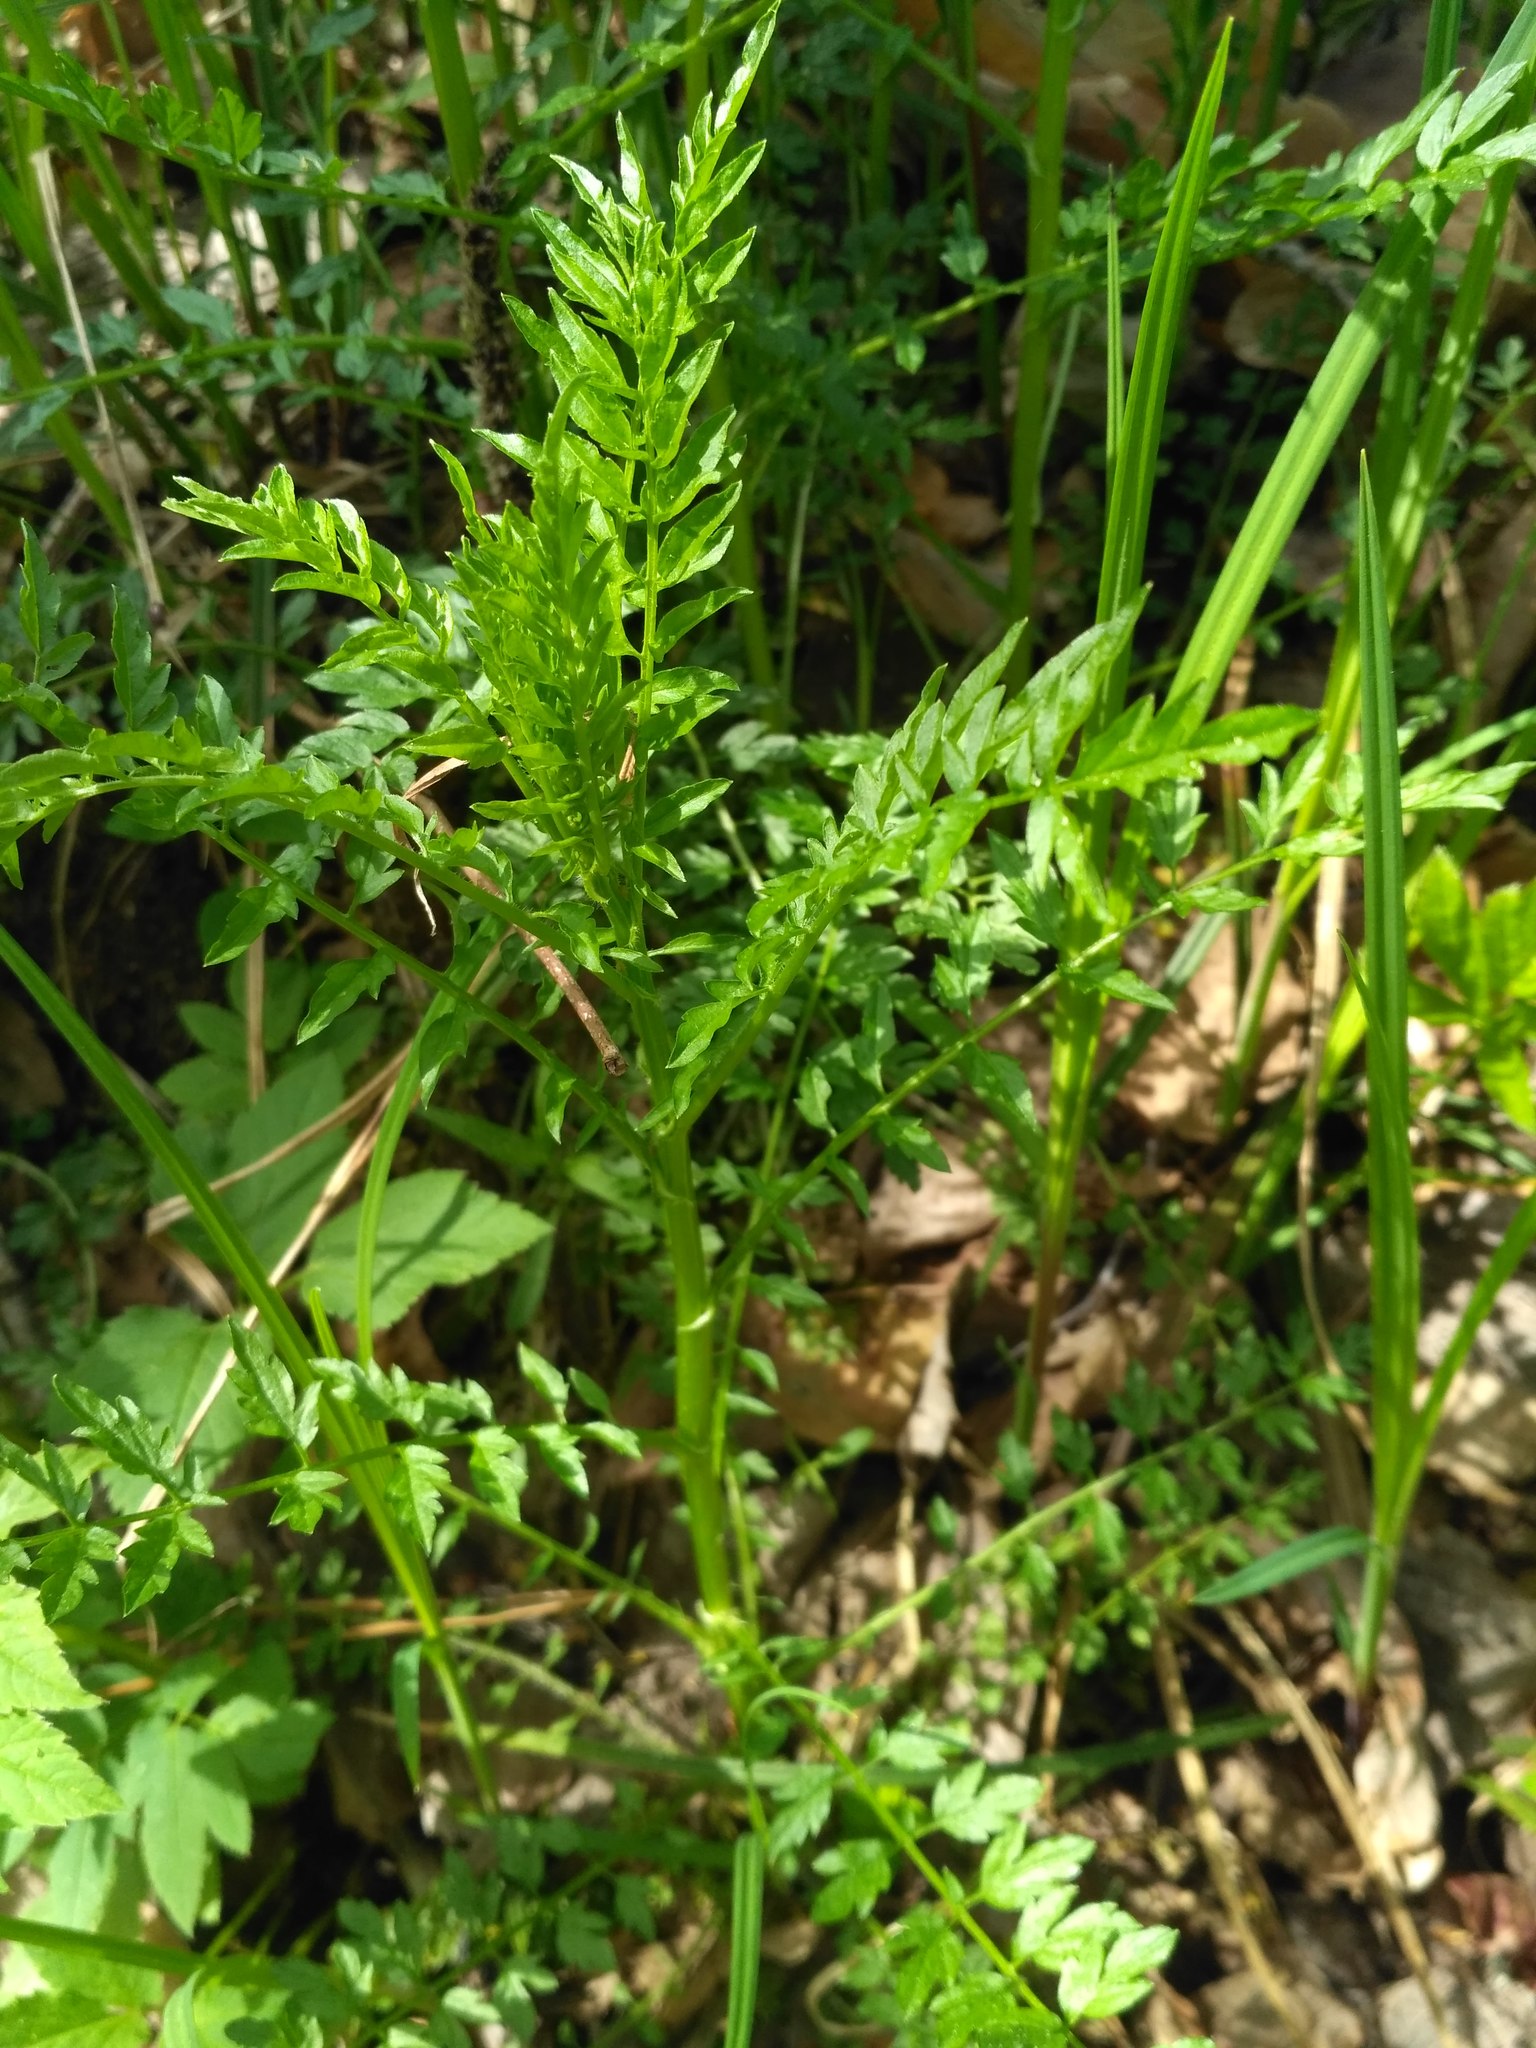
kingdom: Plantae
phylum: Tracheophyta
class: Magnoliopsida
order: Brassicales
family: Brassicaceae
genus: Cardamine
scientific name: Cardamine impatiens
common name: Narrow-leaved bitter-cress
